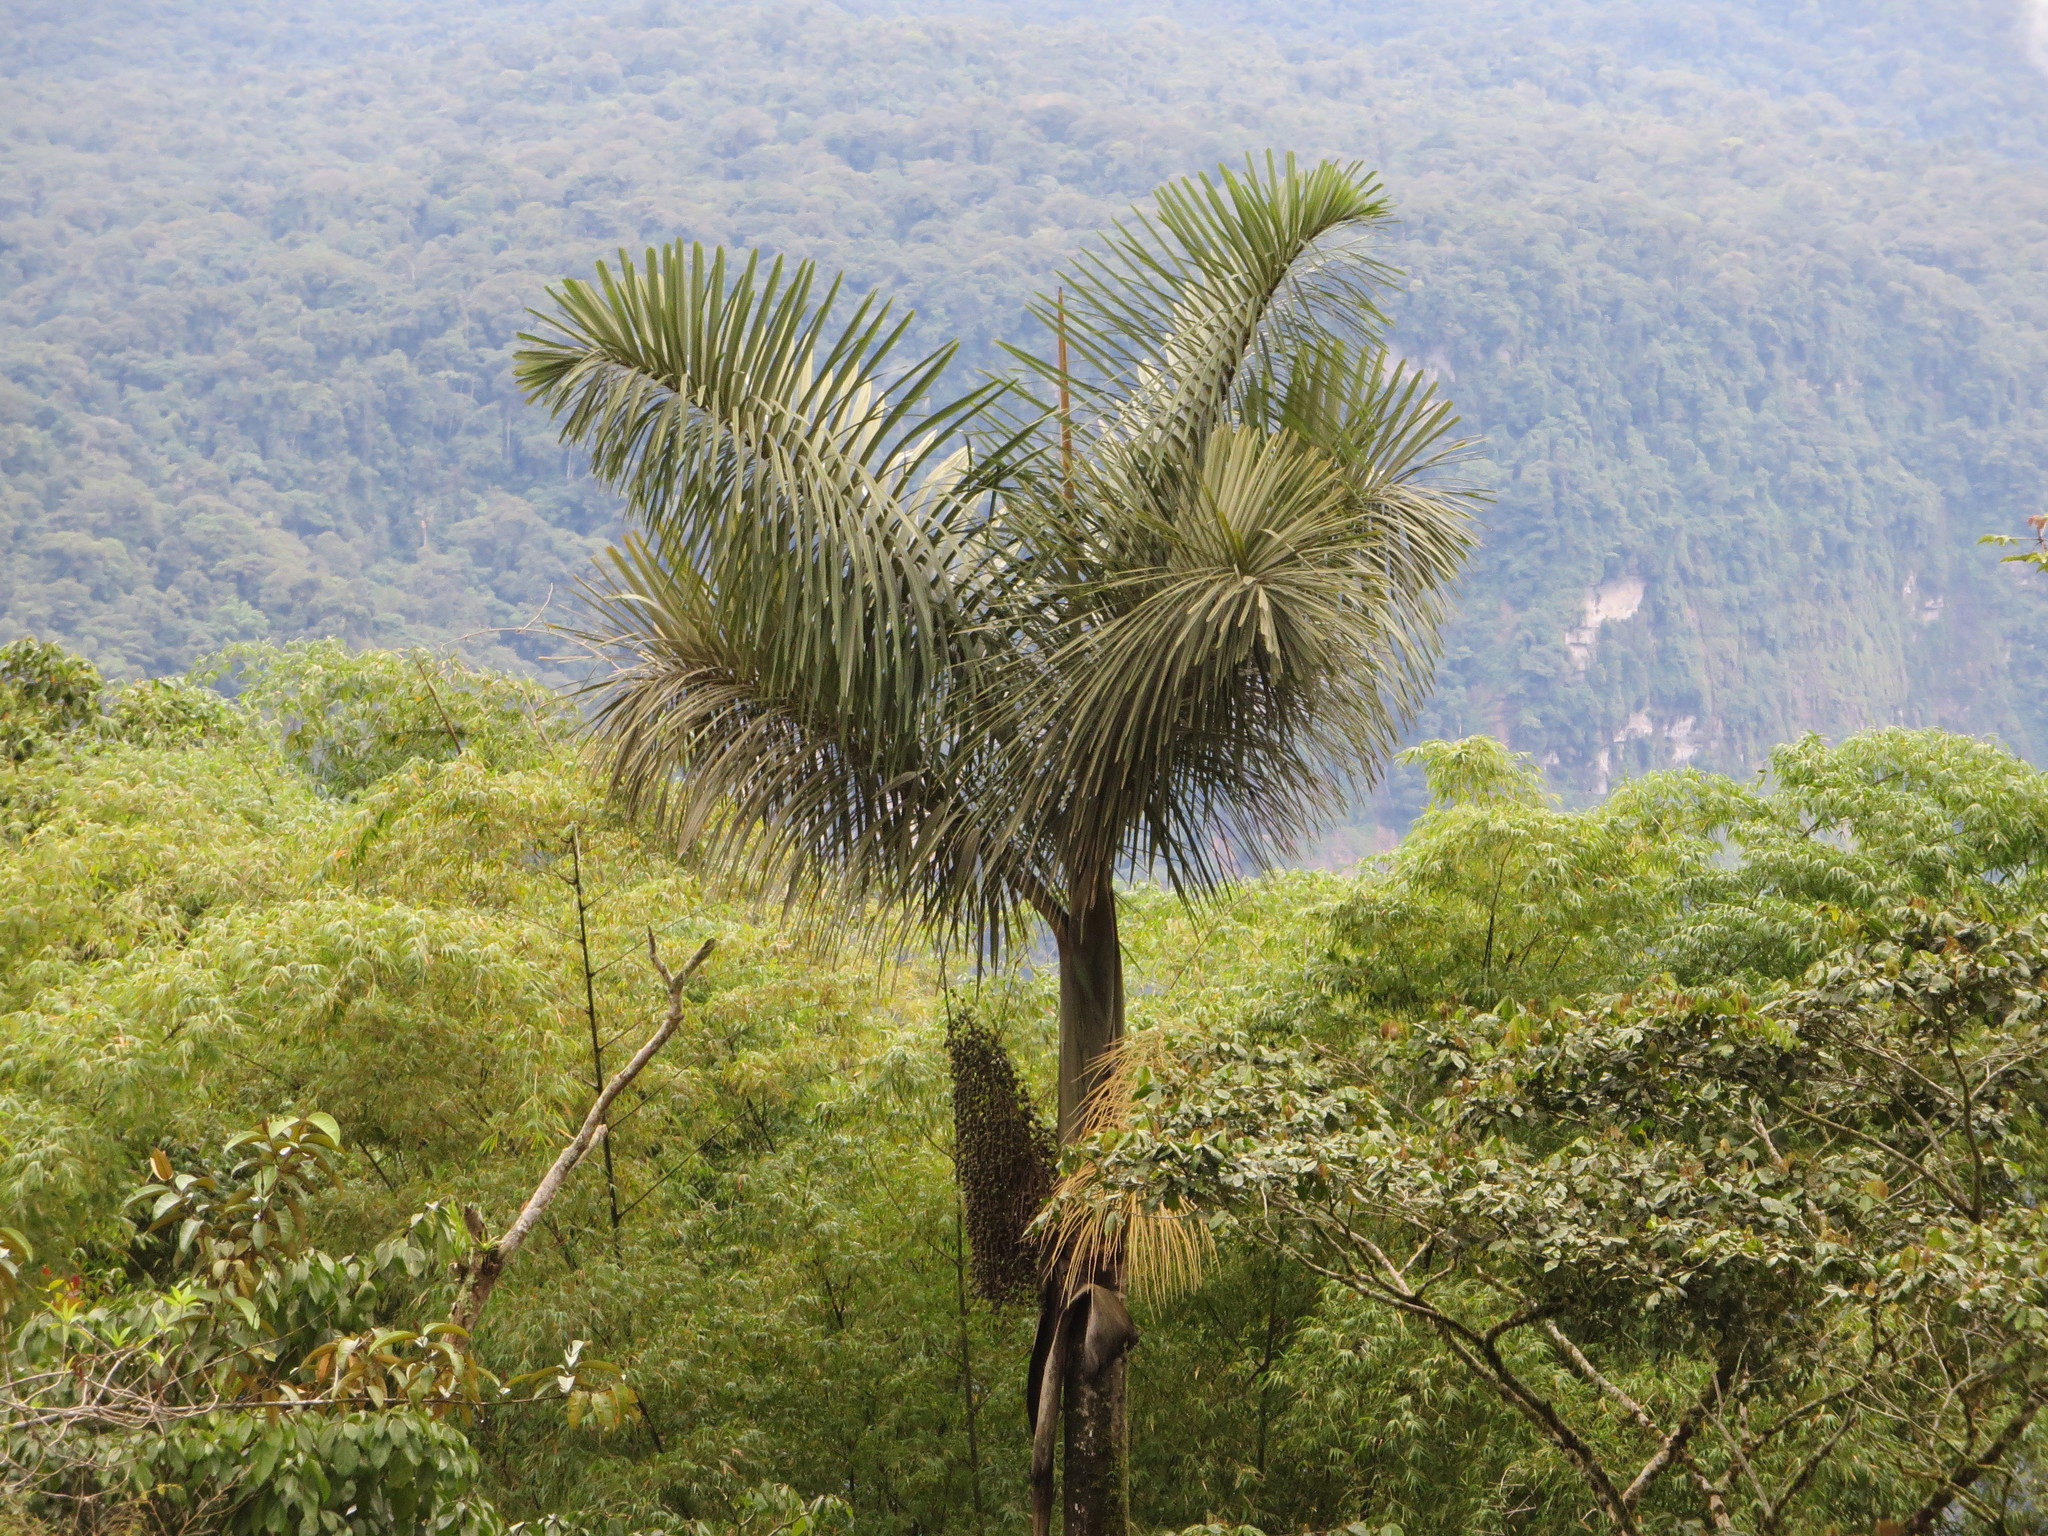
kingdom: Plantae
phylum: Tracheophyta
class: Liliopsida
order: Arecales
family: Arecaceae
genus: Dictyocaryum
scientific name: Dictyocaryum lamarckianum
